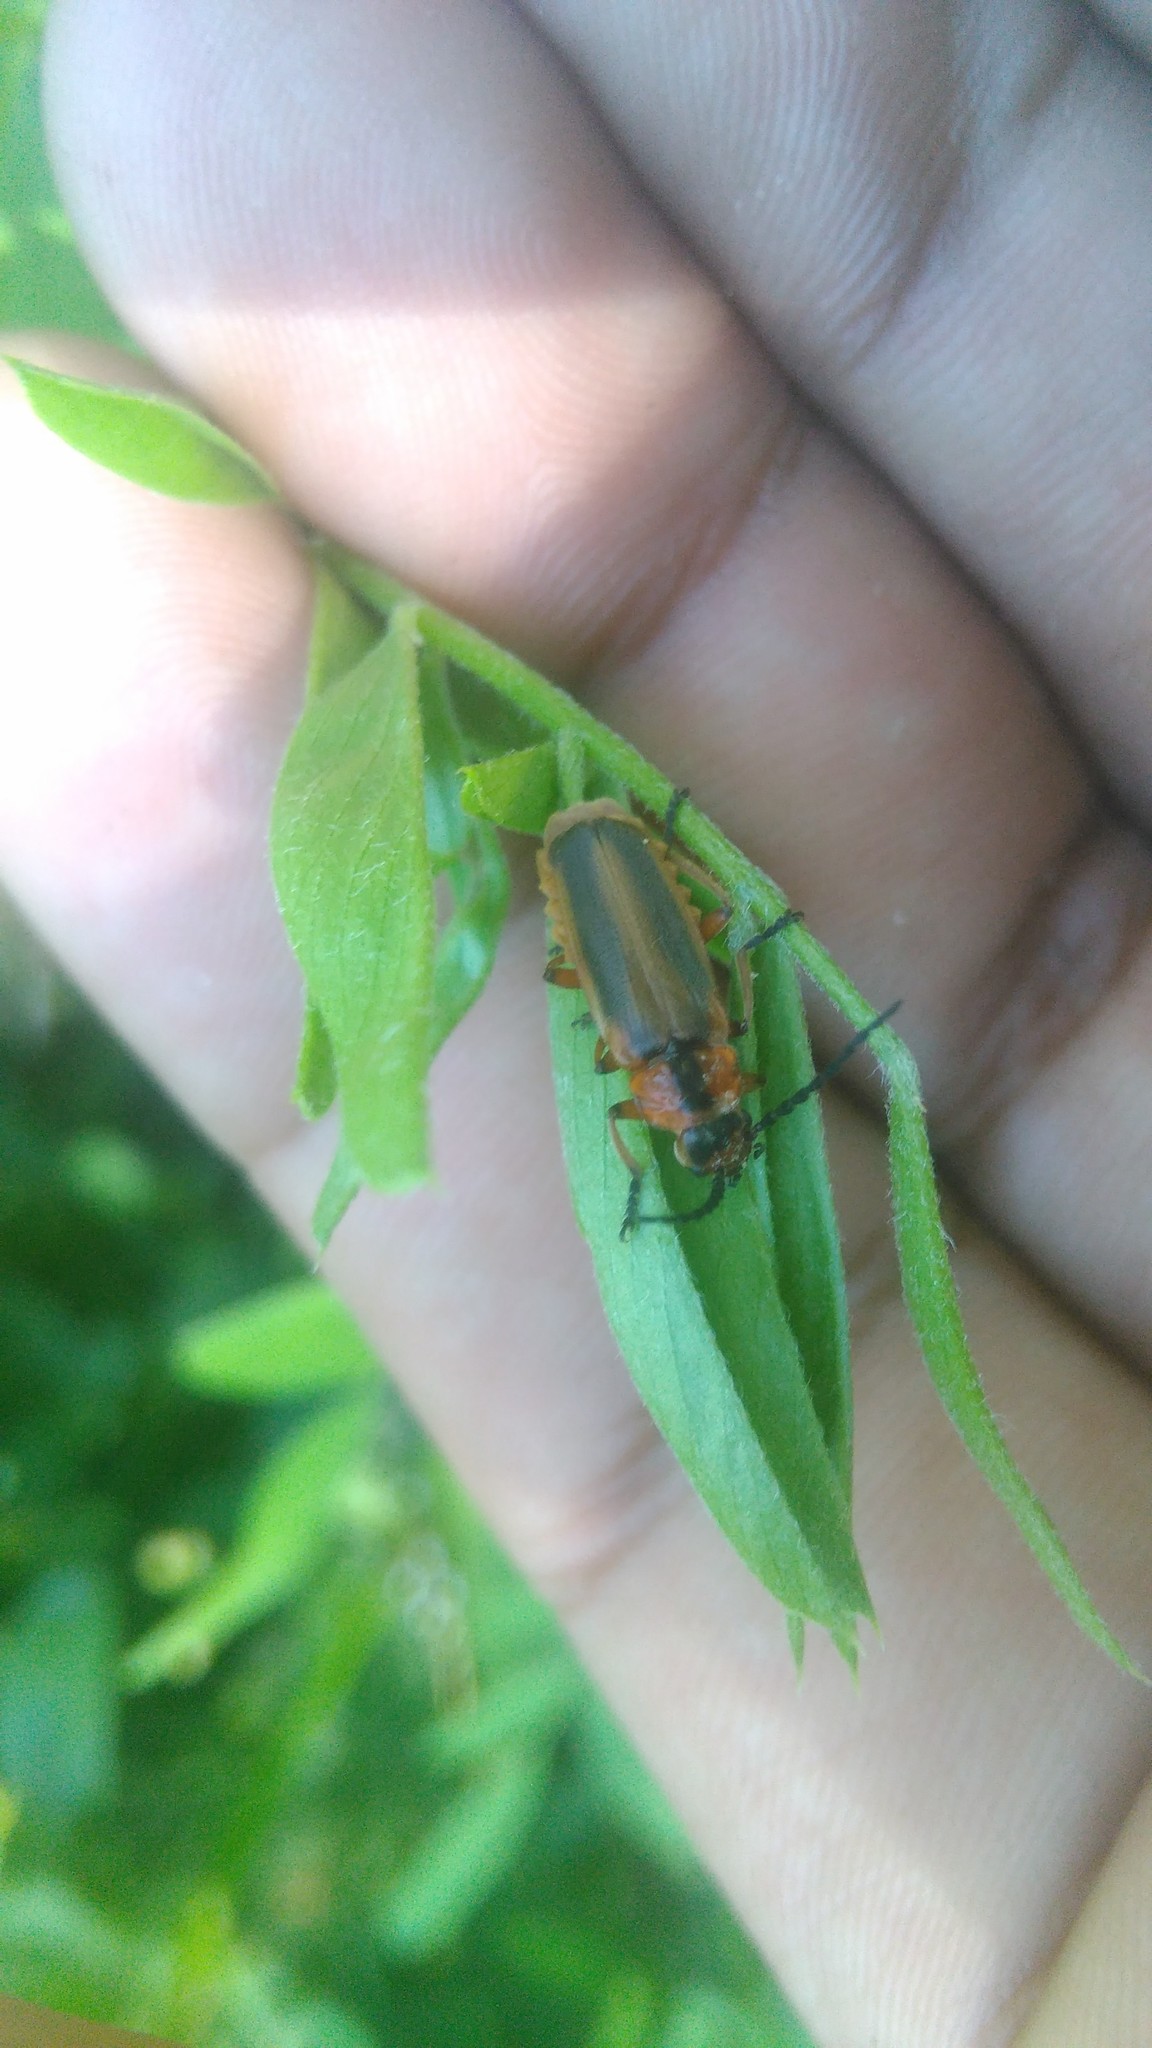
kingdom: Animalia
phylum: Arthropoda
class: Insecta
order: Coleoptera
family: Cantharidae
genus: Discodon
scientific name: Discodon
